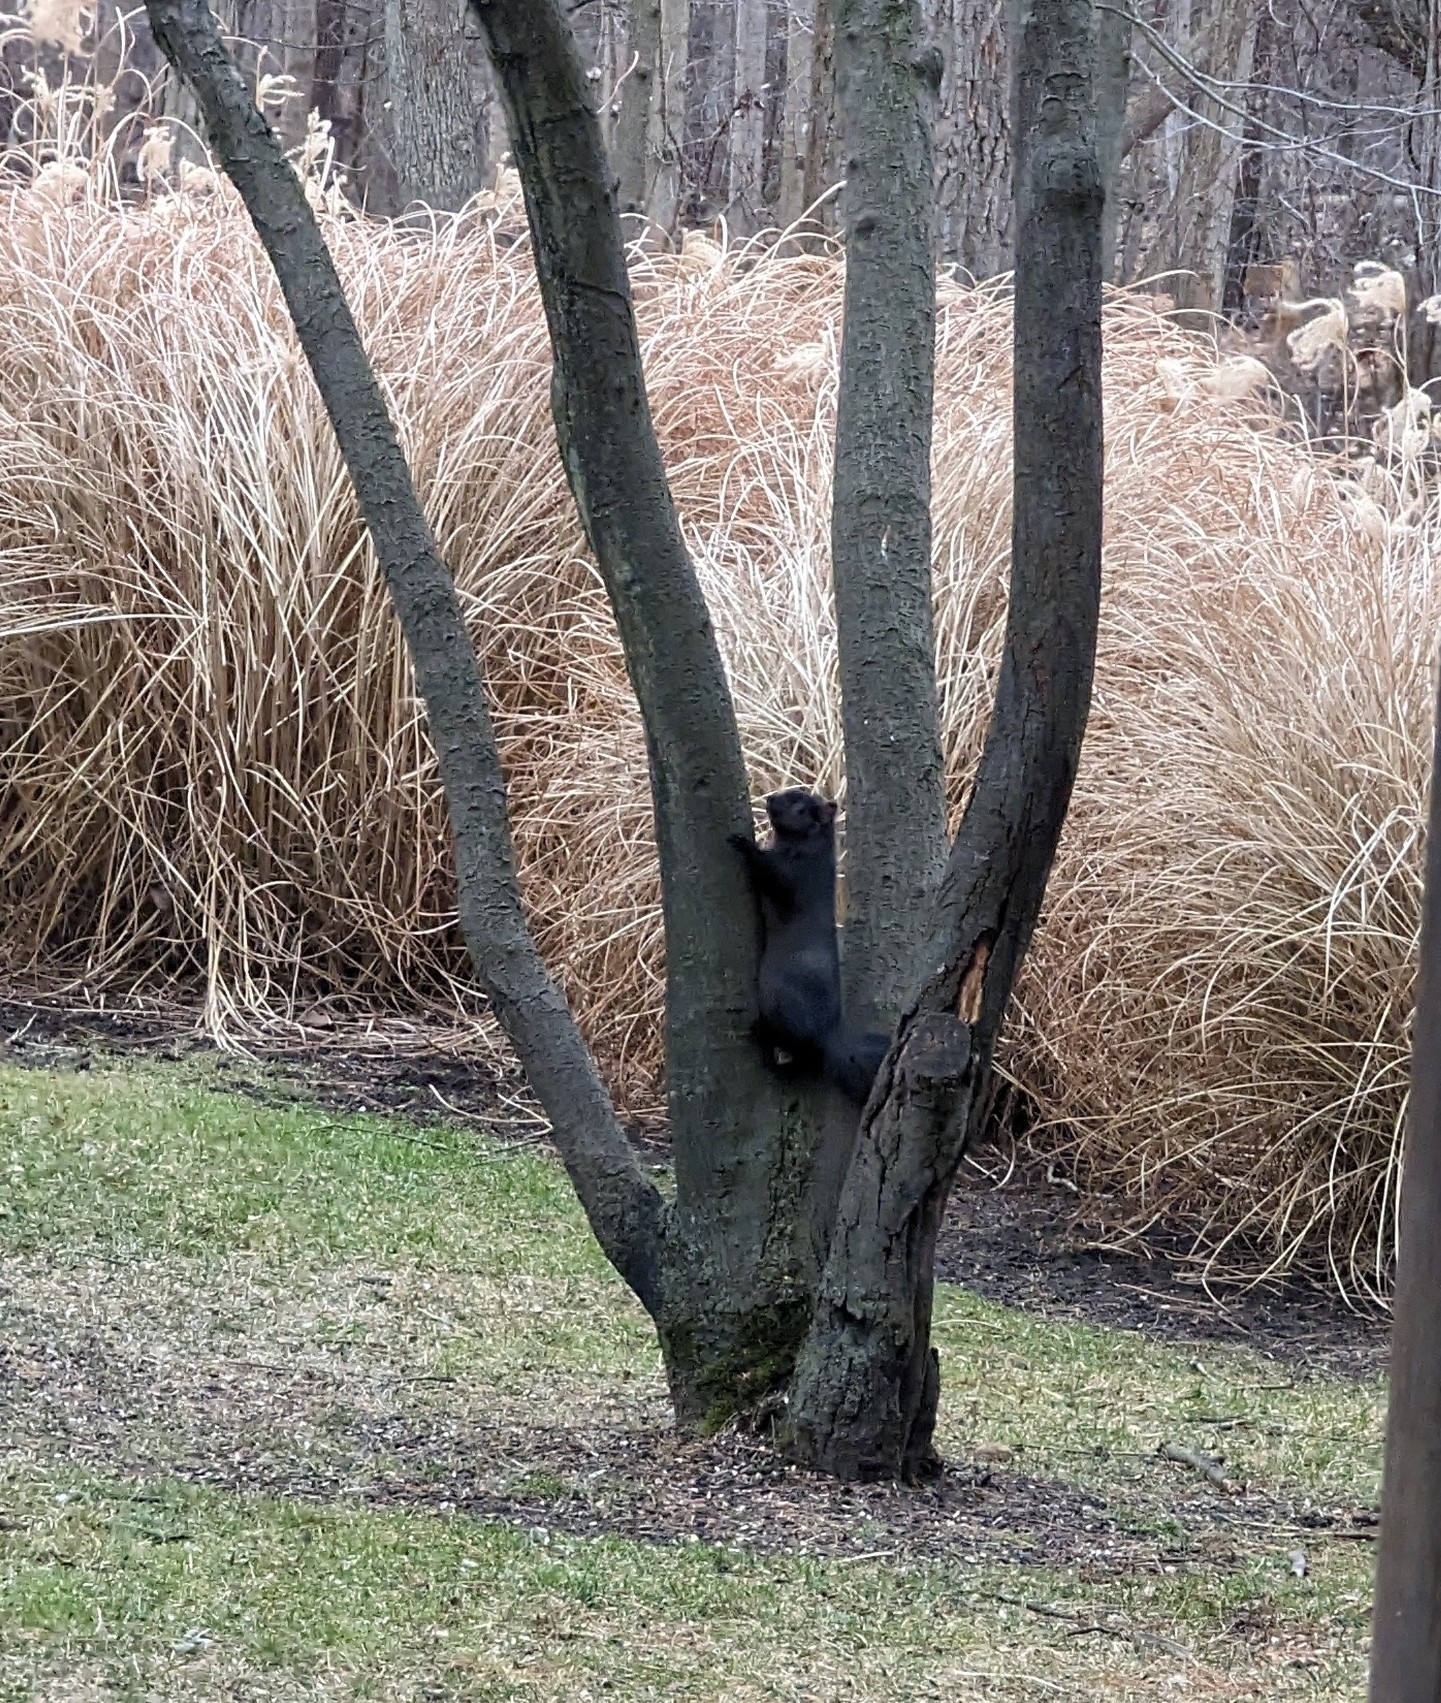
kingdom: Animalia
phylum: Chordata
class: Mammalia
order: Rodentia
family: Sciuridae
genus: Sciurus
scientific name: Sciurus carolinensis
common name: Eastern gray squirrel
